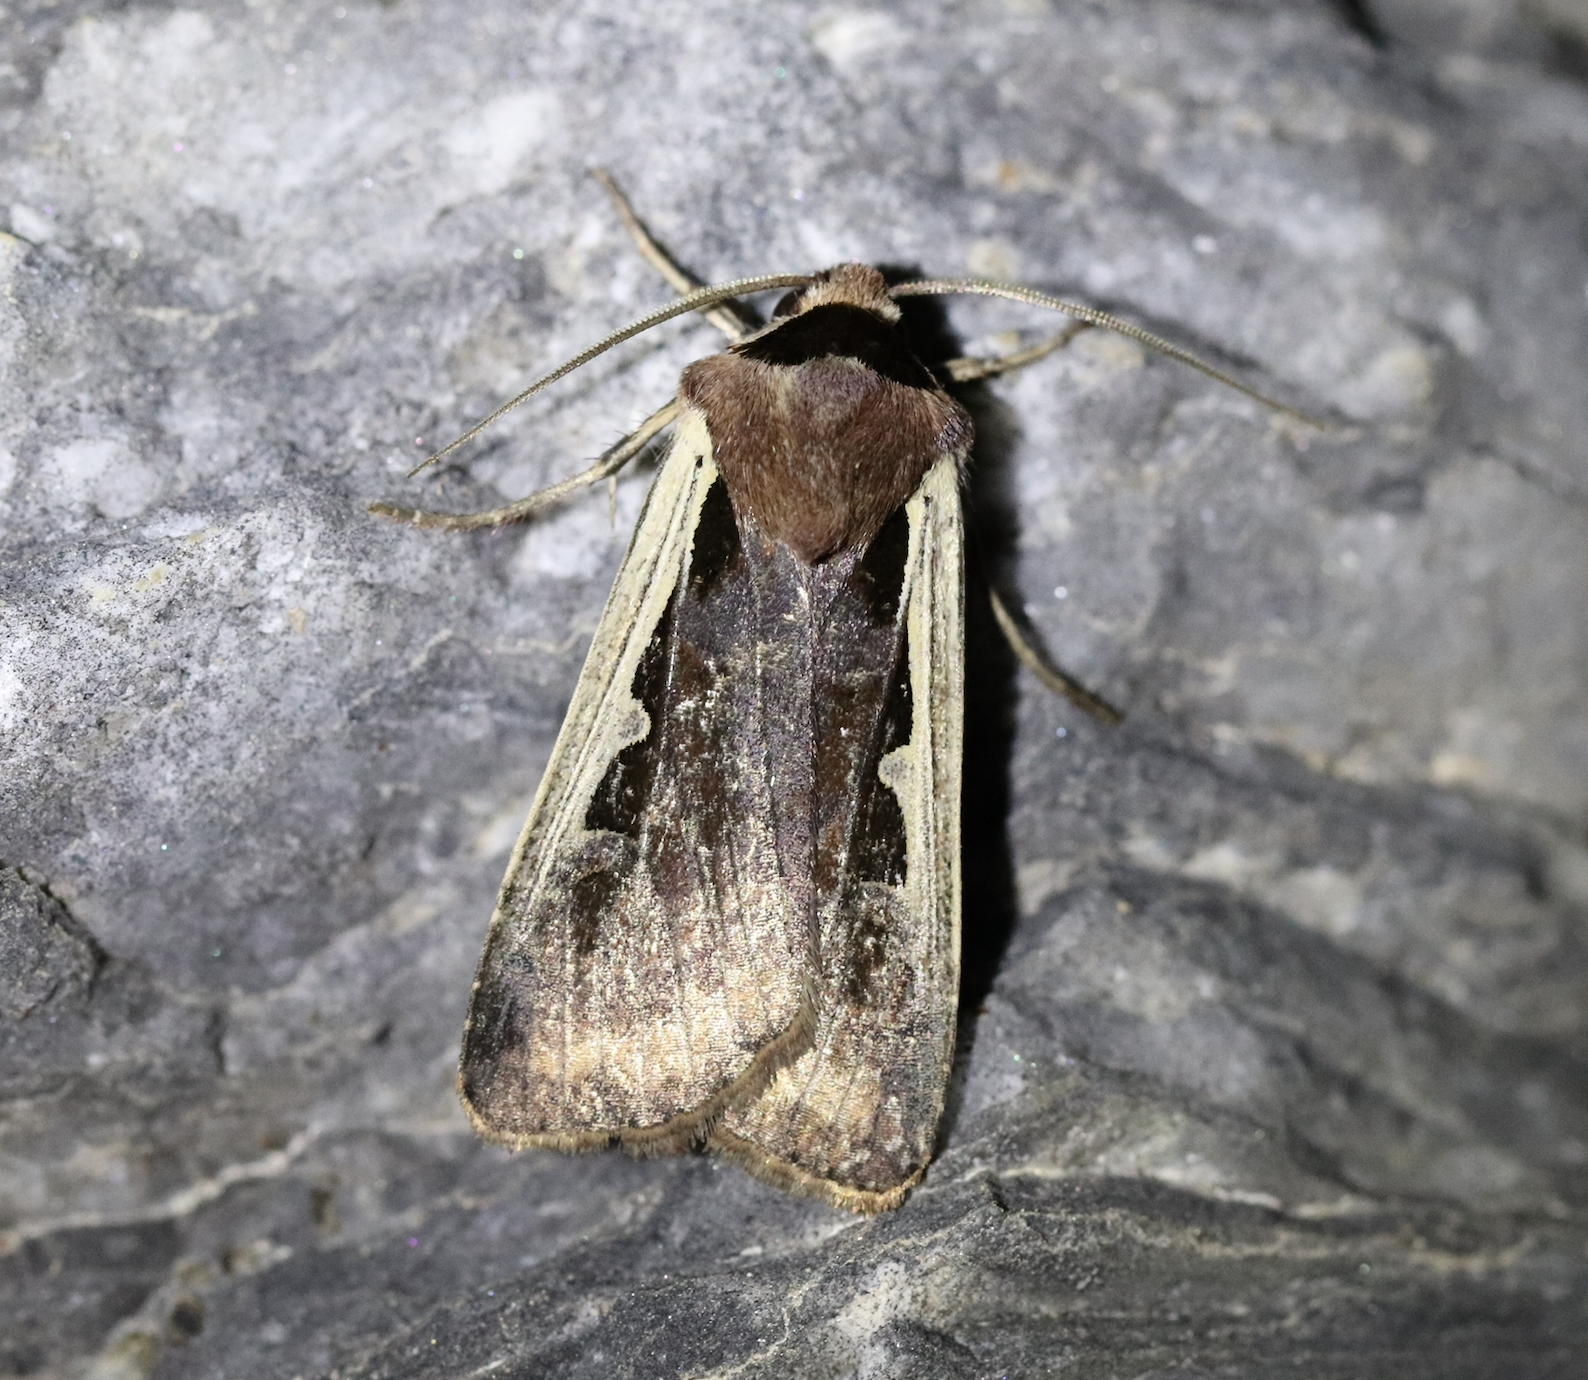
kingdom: Animalia
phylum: Arthropoda
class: Insecta
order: Lepidoptera
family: Noctuidae
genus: Dichagyris
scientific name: Dichagyris musiva
